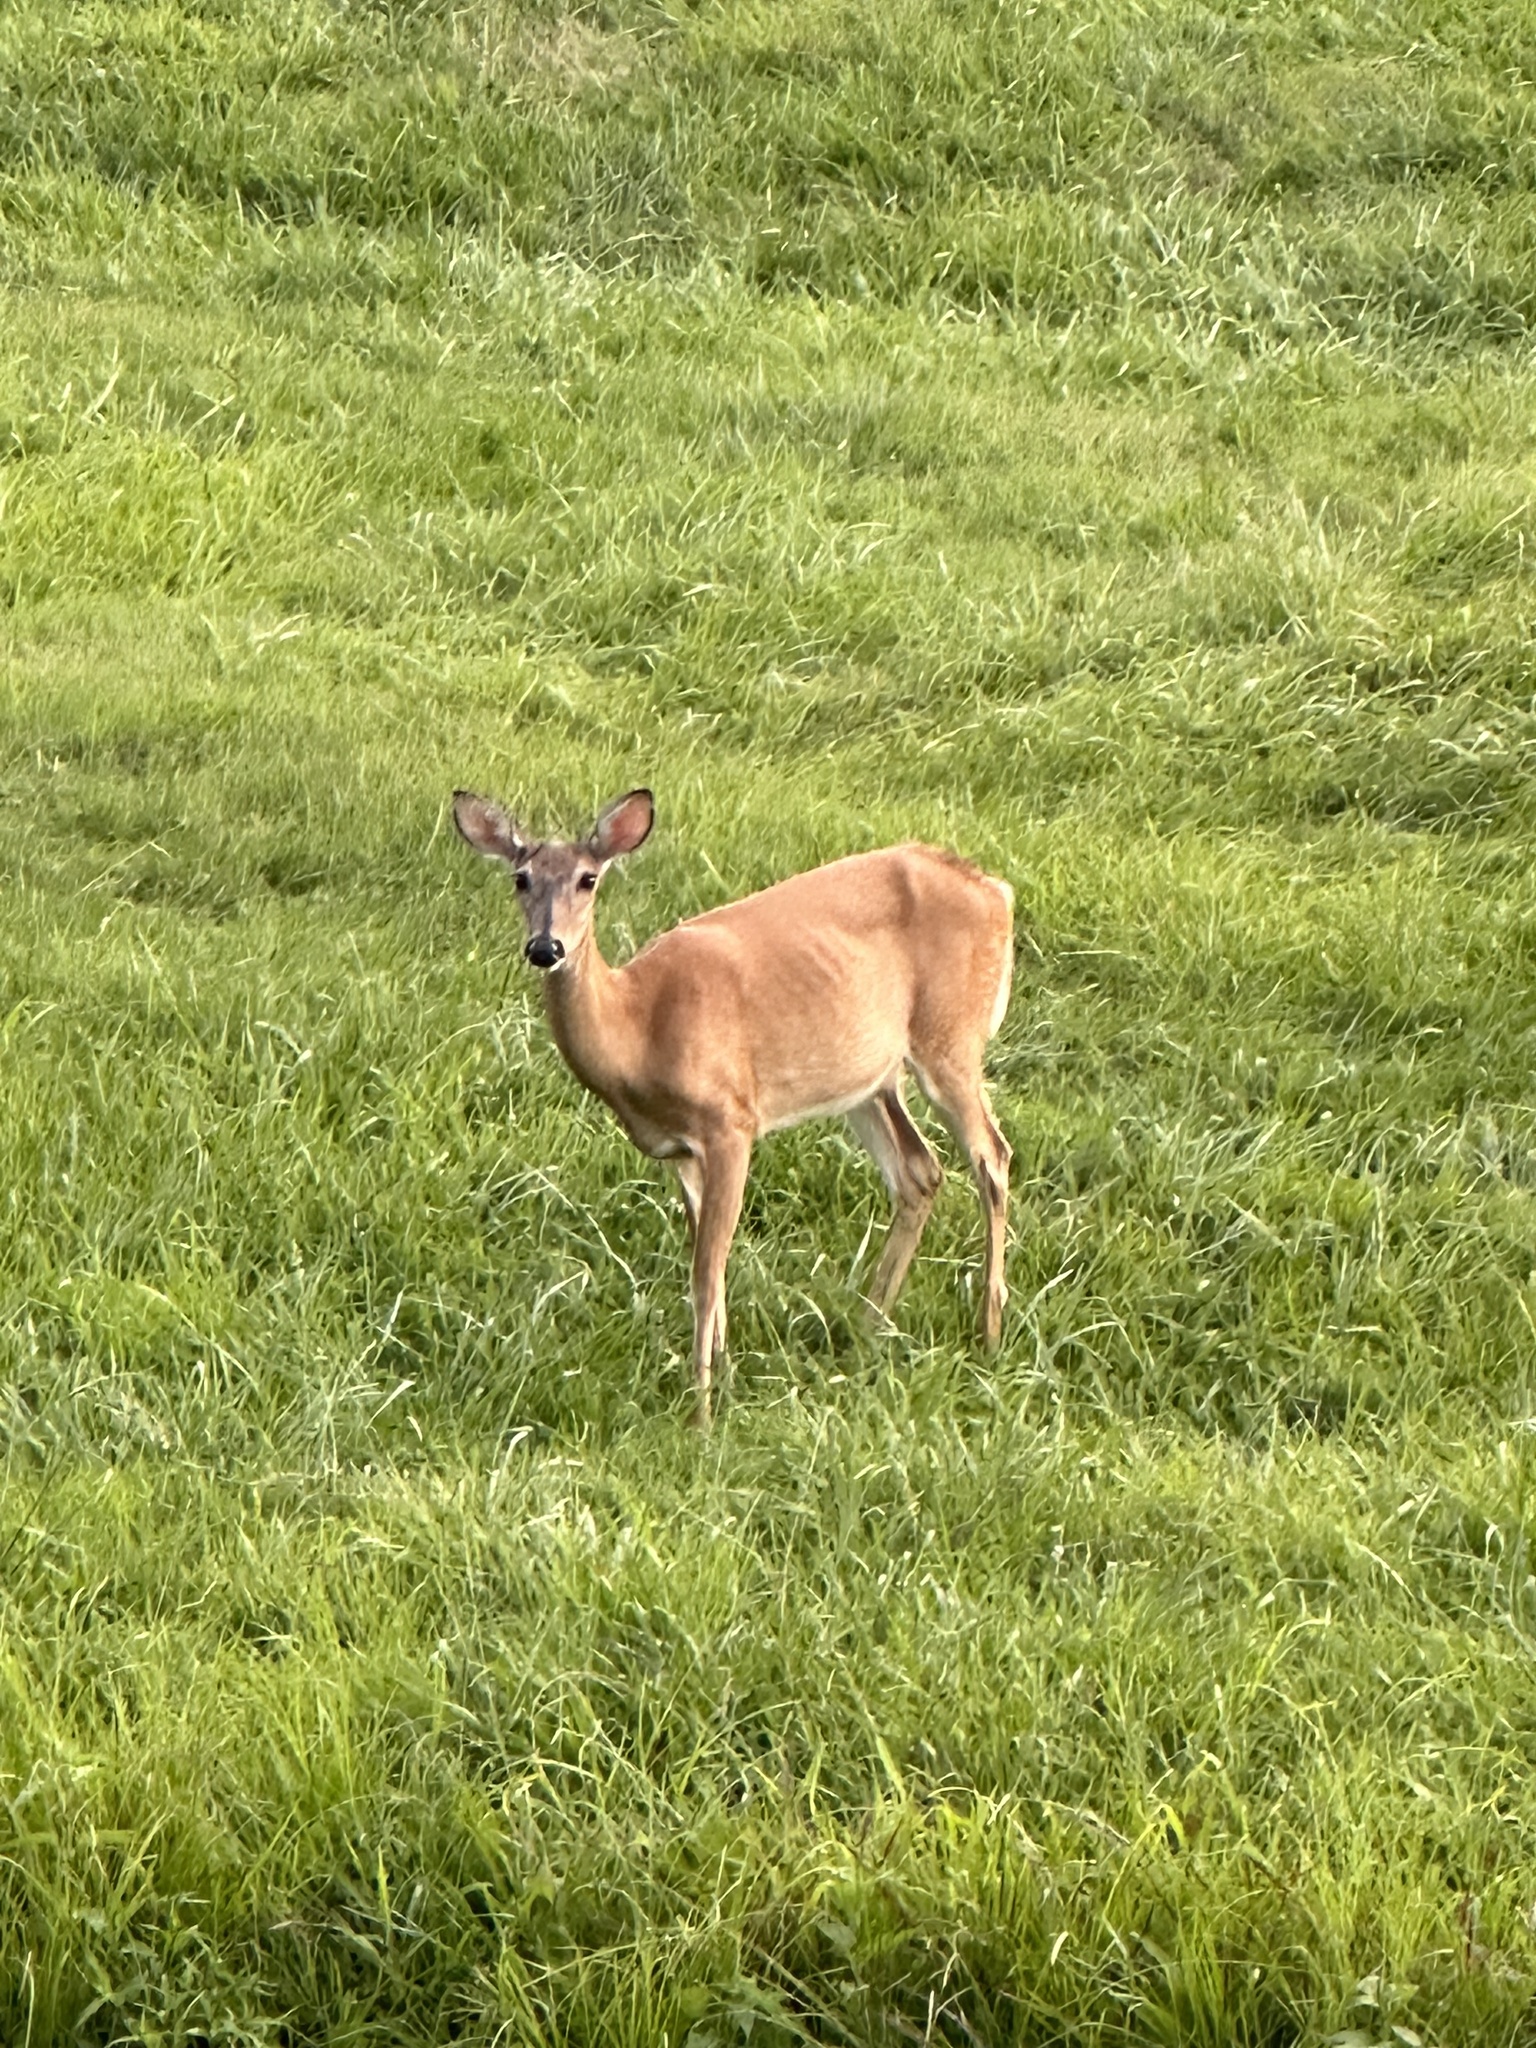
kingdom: Animalia
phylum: Chordata
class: Mammalia
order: Artiodactyla
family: Cervidae
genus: Odocoileus
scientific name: Odocoileus virginianus
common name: White-tailed deer
